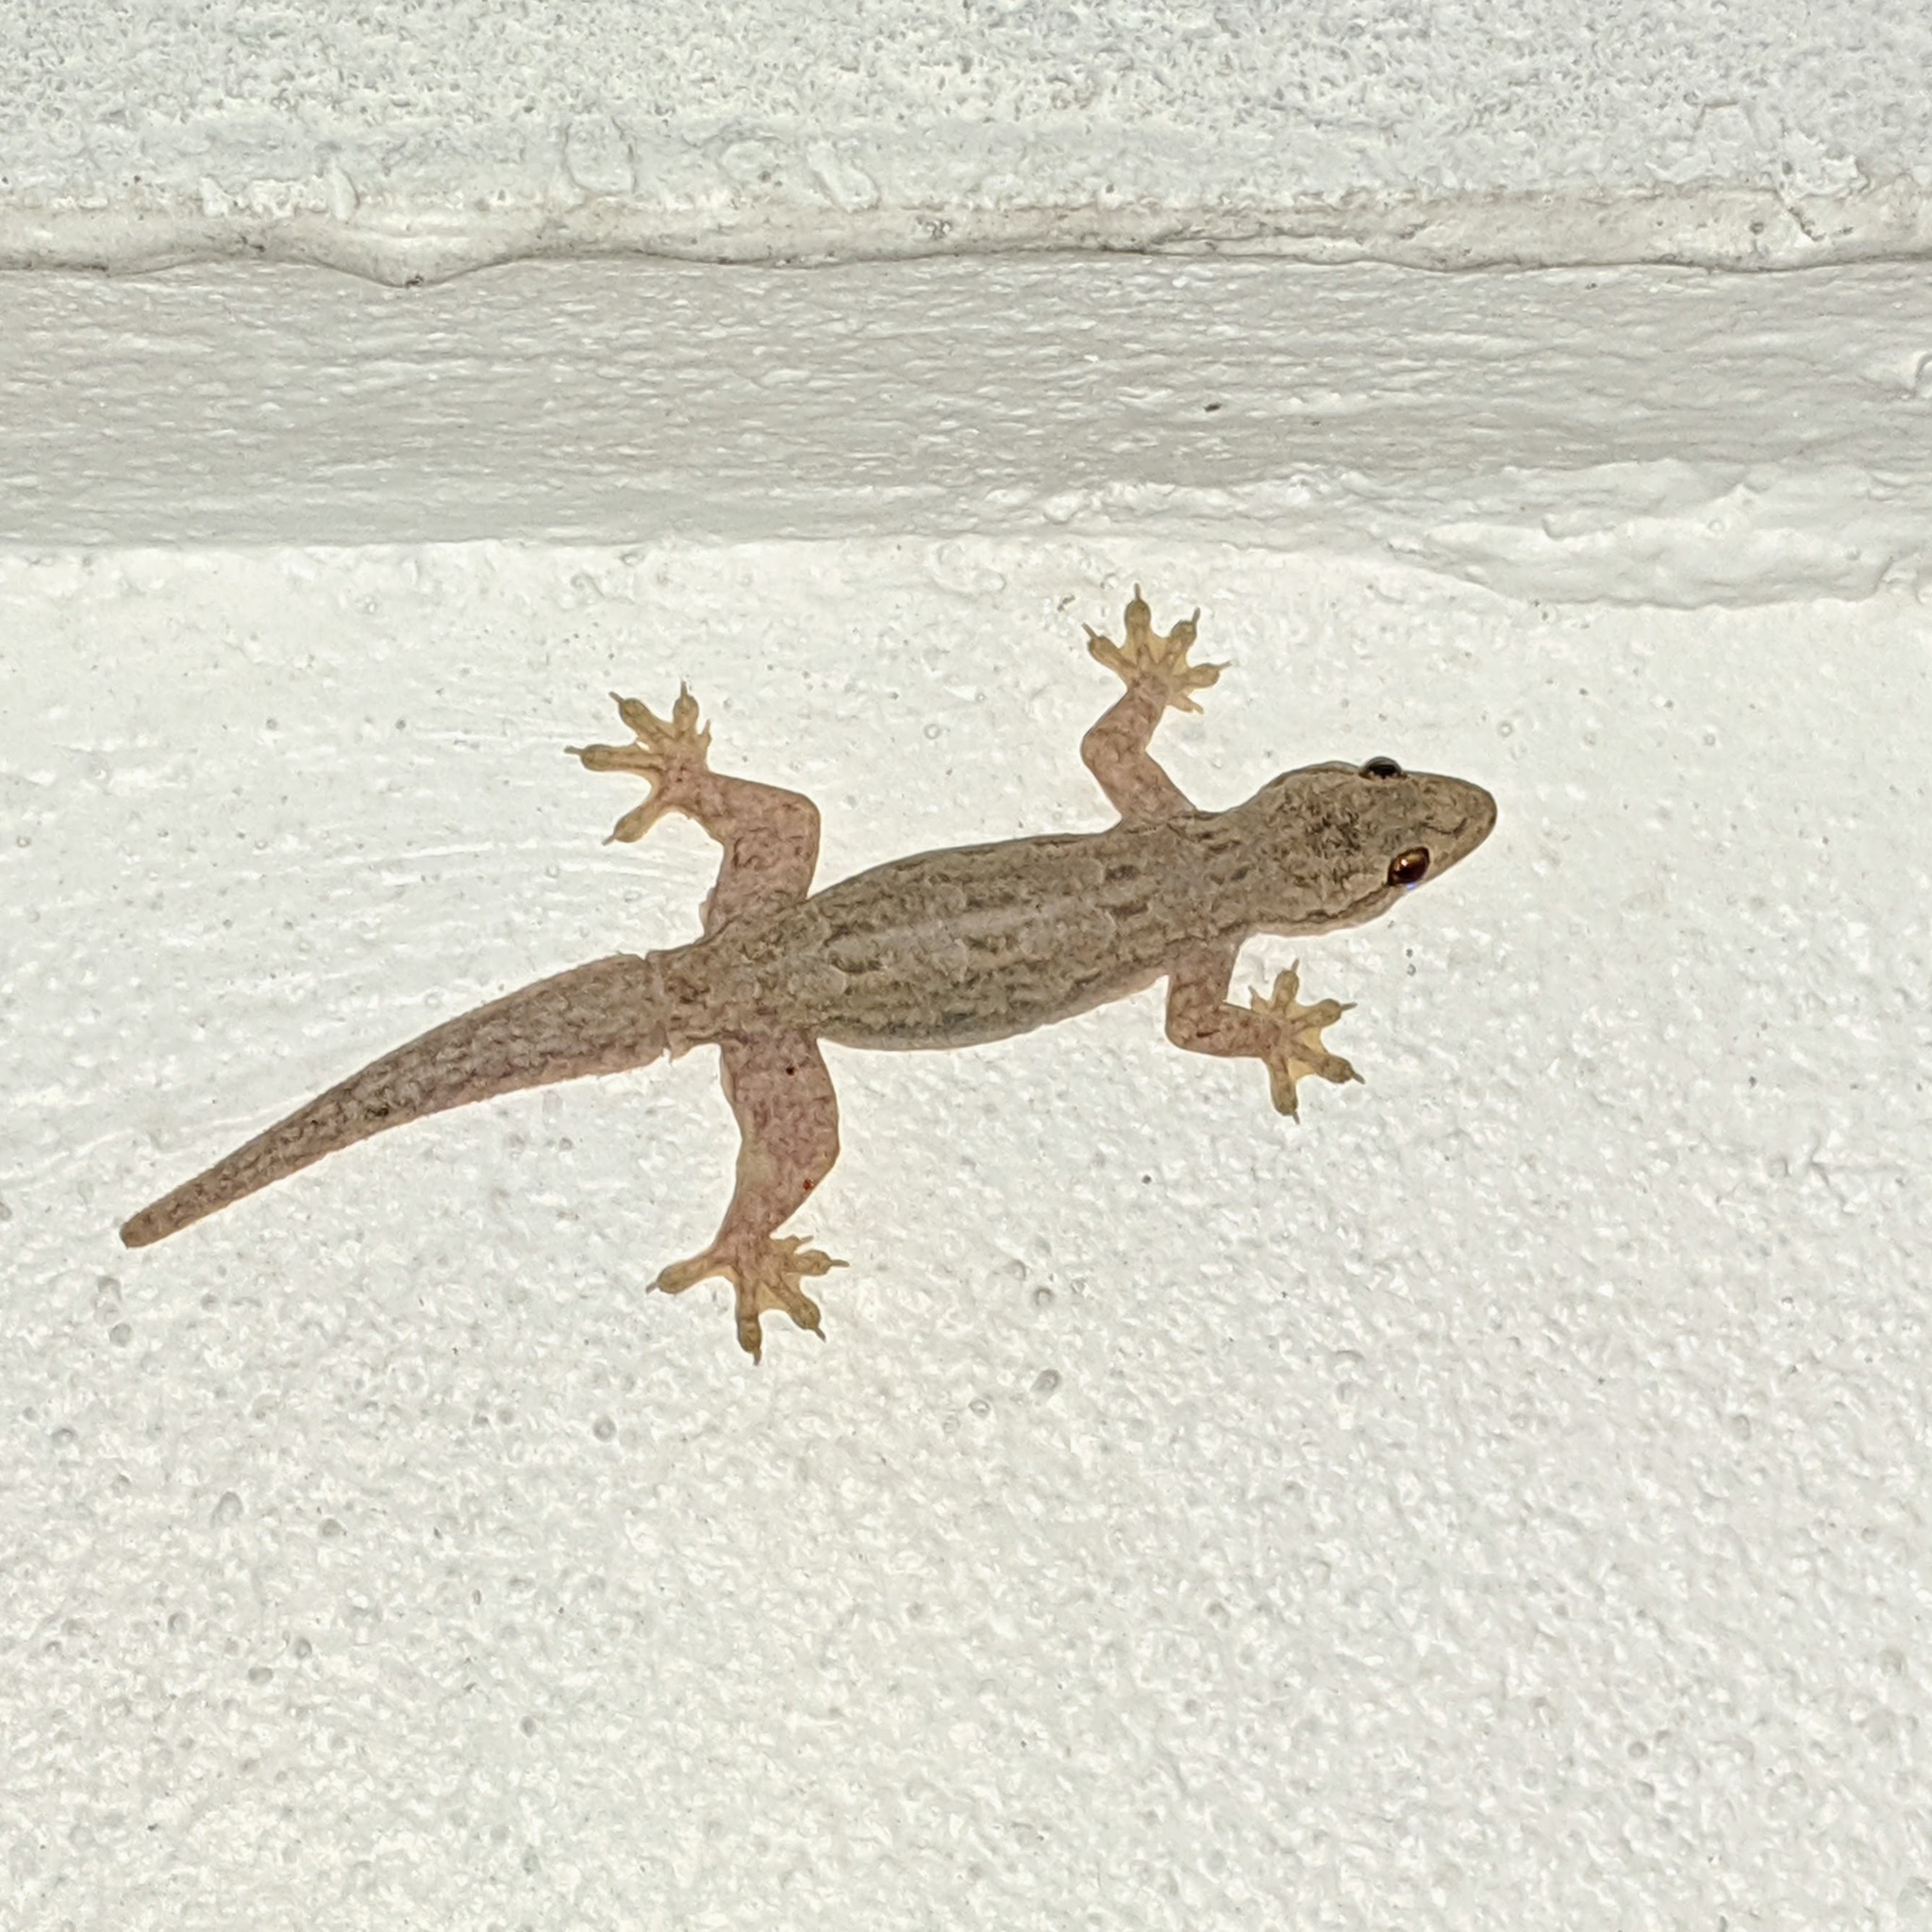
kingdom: Animalia
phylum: Chordata
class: Squamata
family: Gekkonidae
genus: Hemidactylus
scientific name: Hemidactylus platyurus
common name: Flat-tailed house gecko
